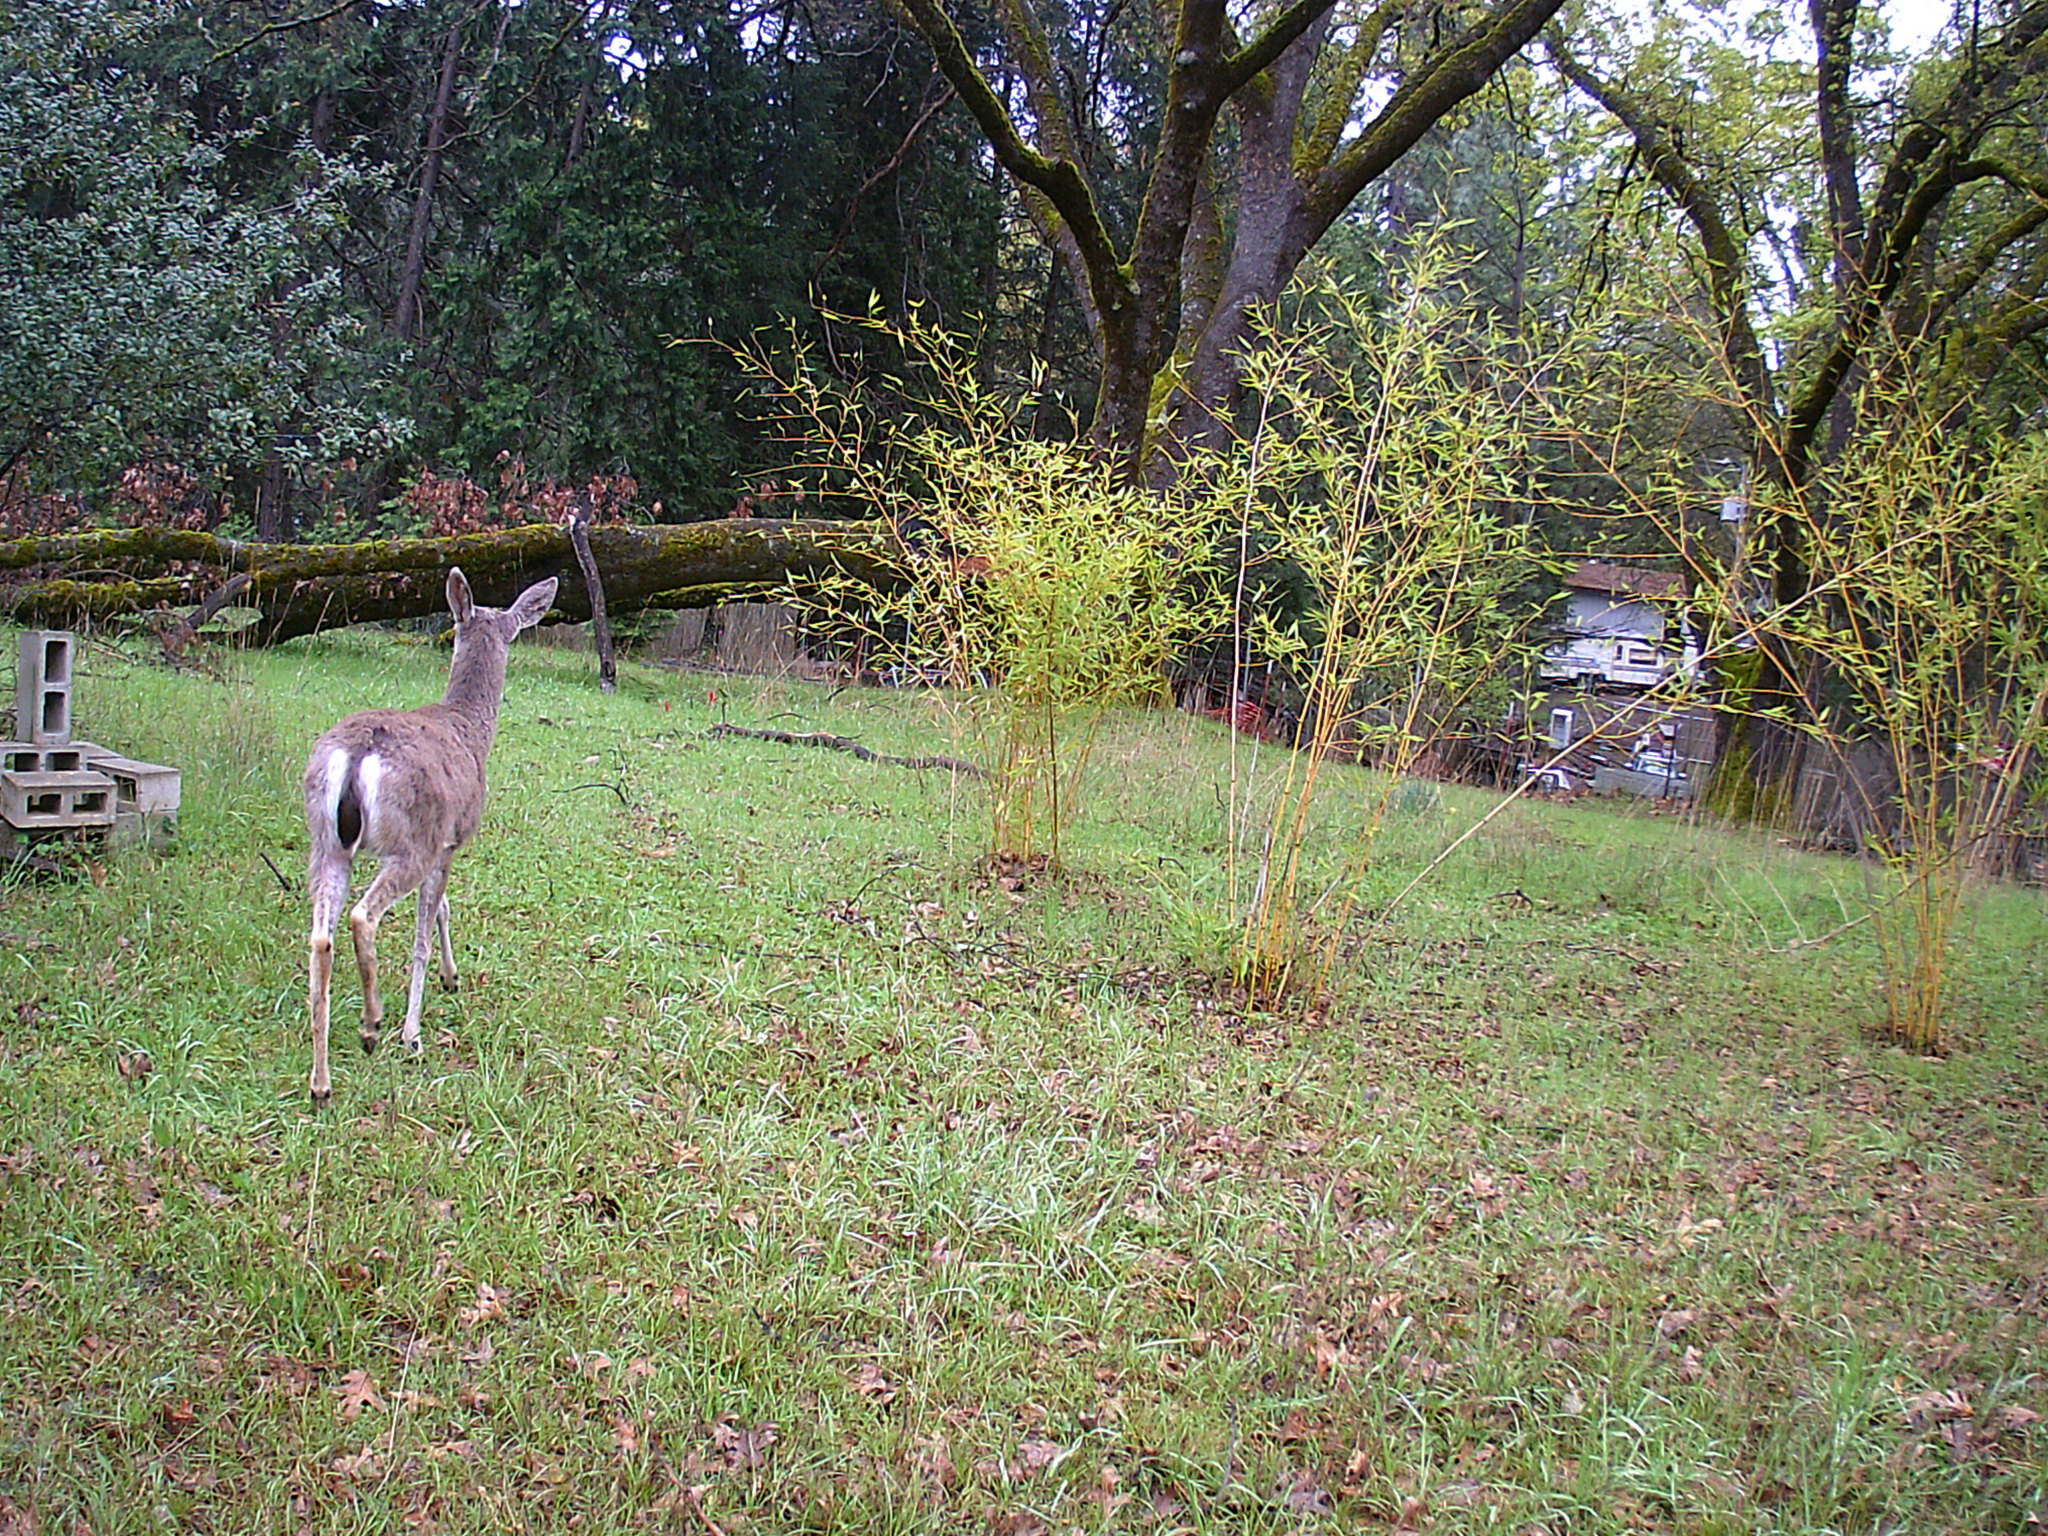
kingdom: Animalia
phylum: Chordata
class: Mammalia
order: Artiodactyla
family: Cervidae
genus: Odocoileus
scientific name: Odocoileus hemionus
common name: Mule deer
